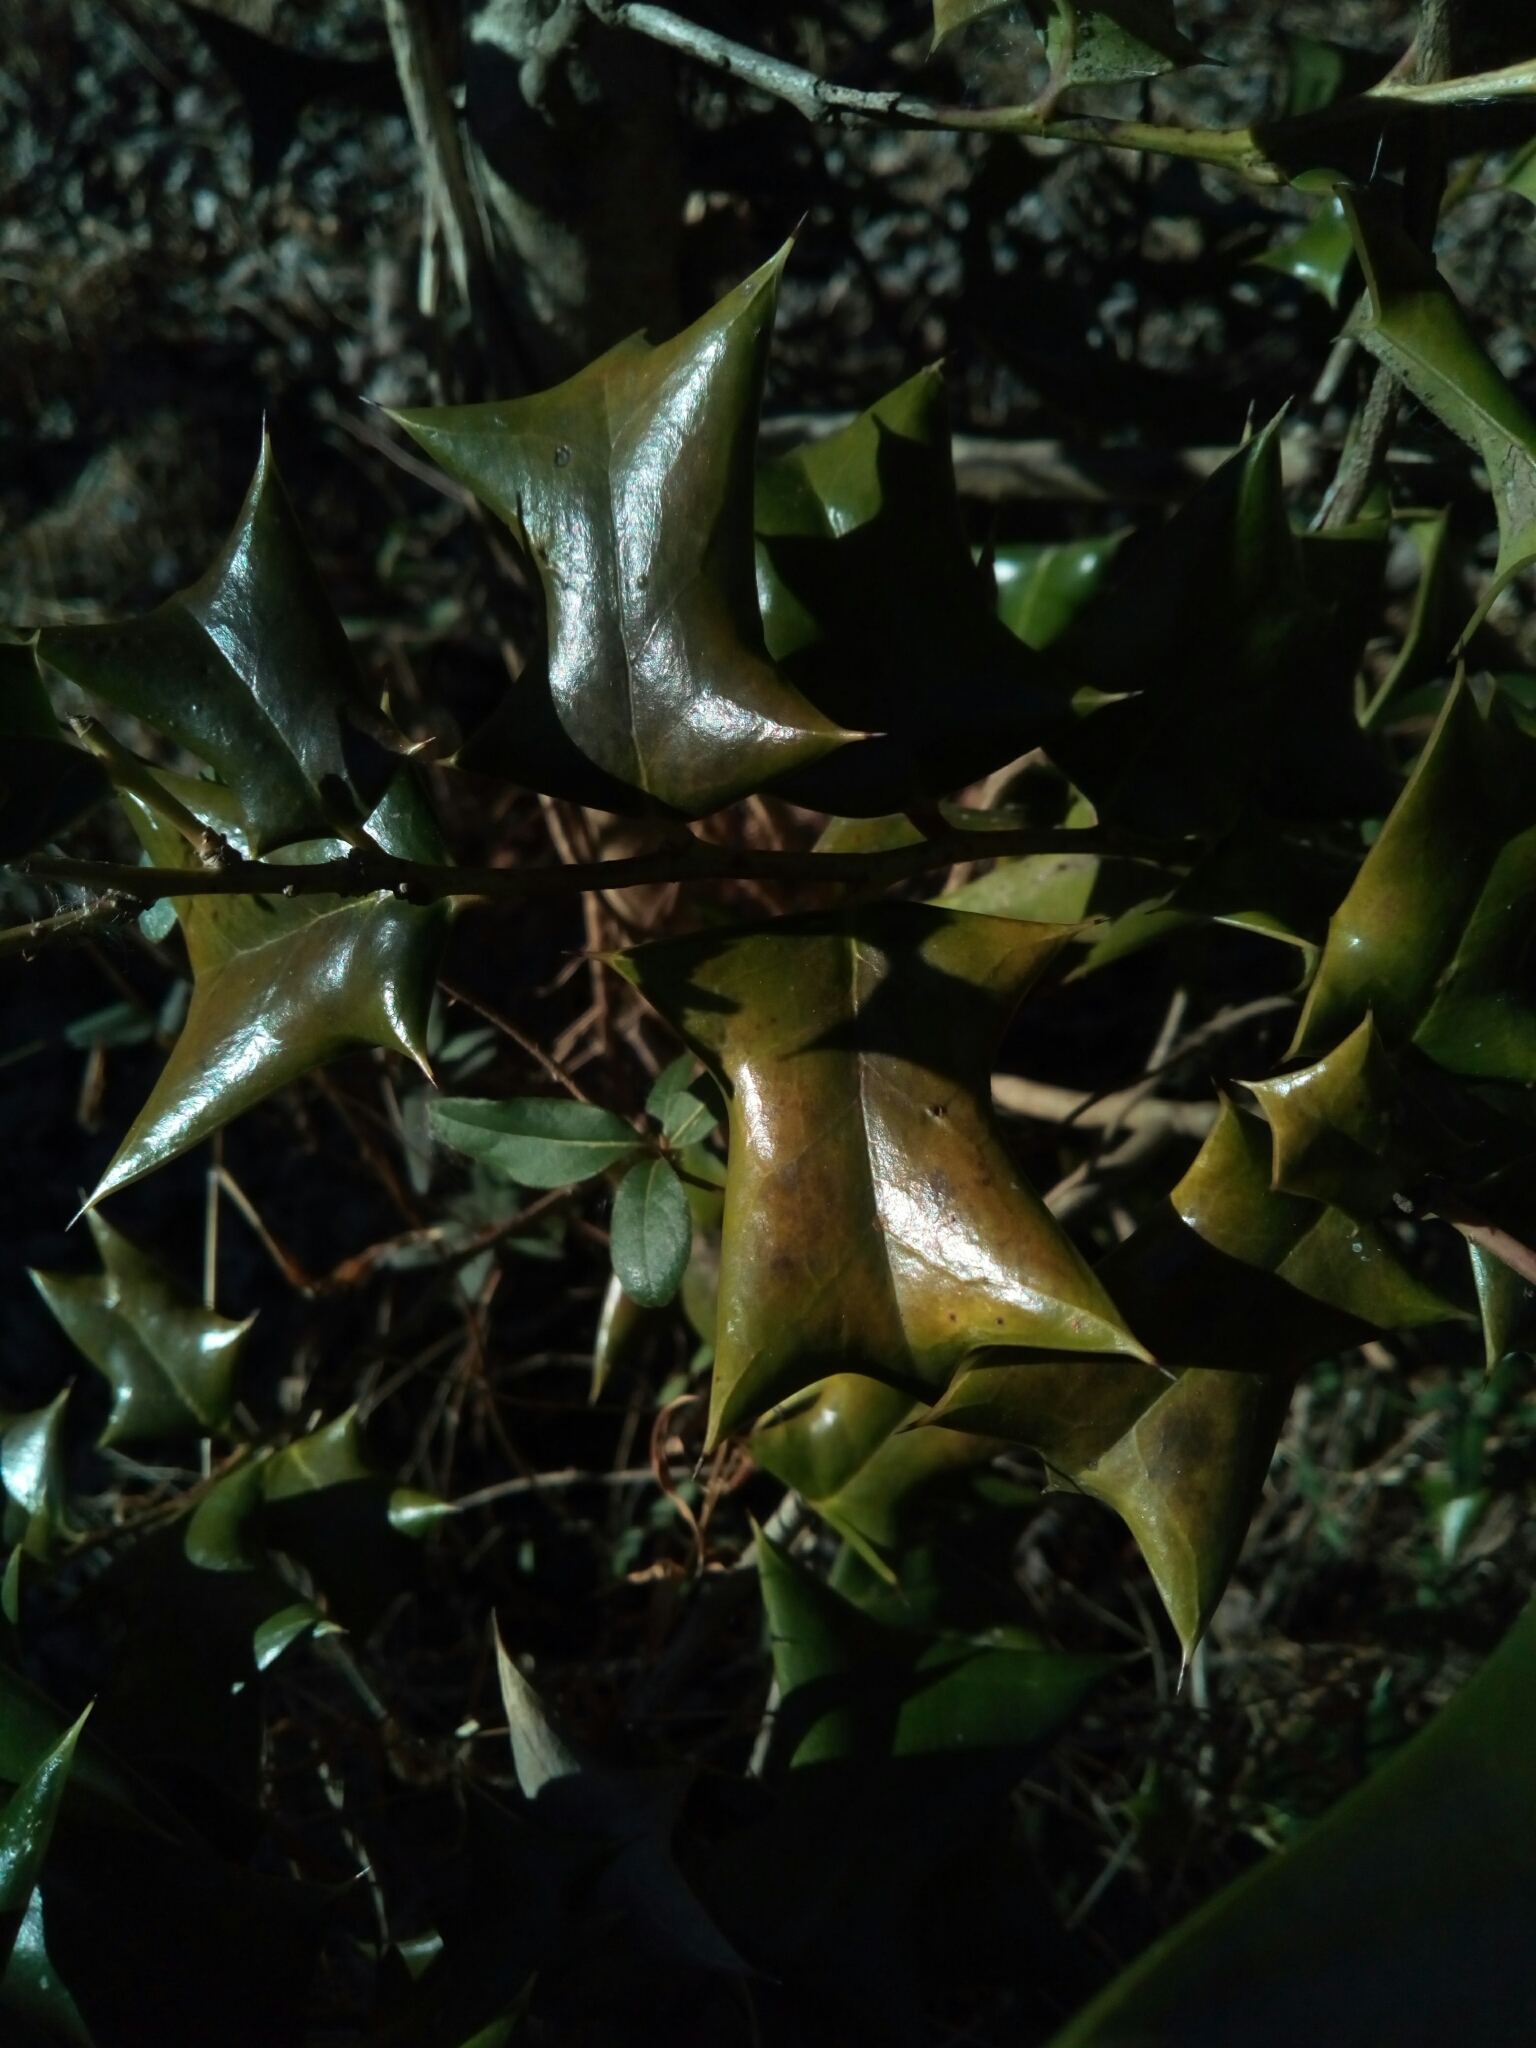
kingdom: Plantae
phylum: Tracheophyta
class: Magnoliopsida
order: Aquifoliales
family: Aquifoliaceae
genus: Ilex
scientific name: Ilex cornuta
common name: Chinese holly
